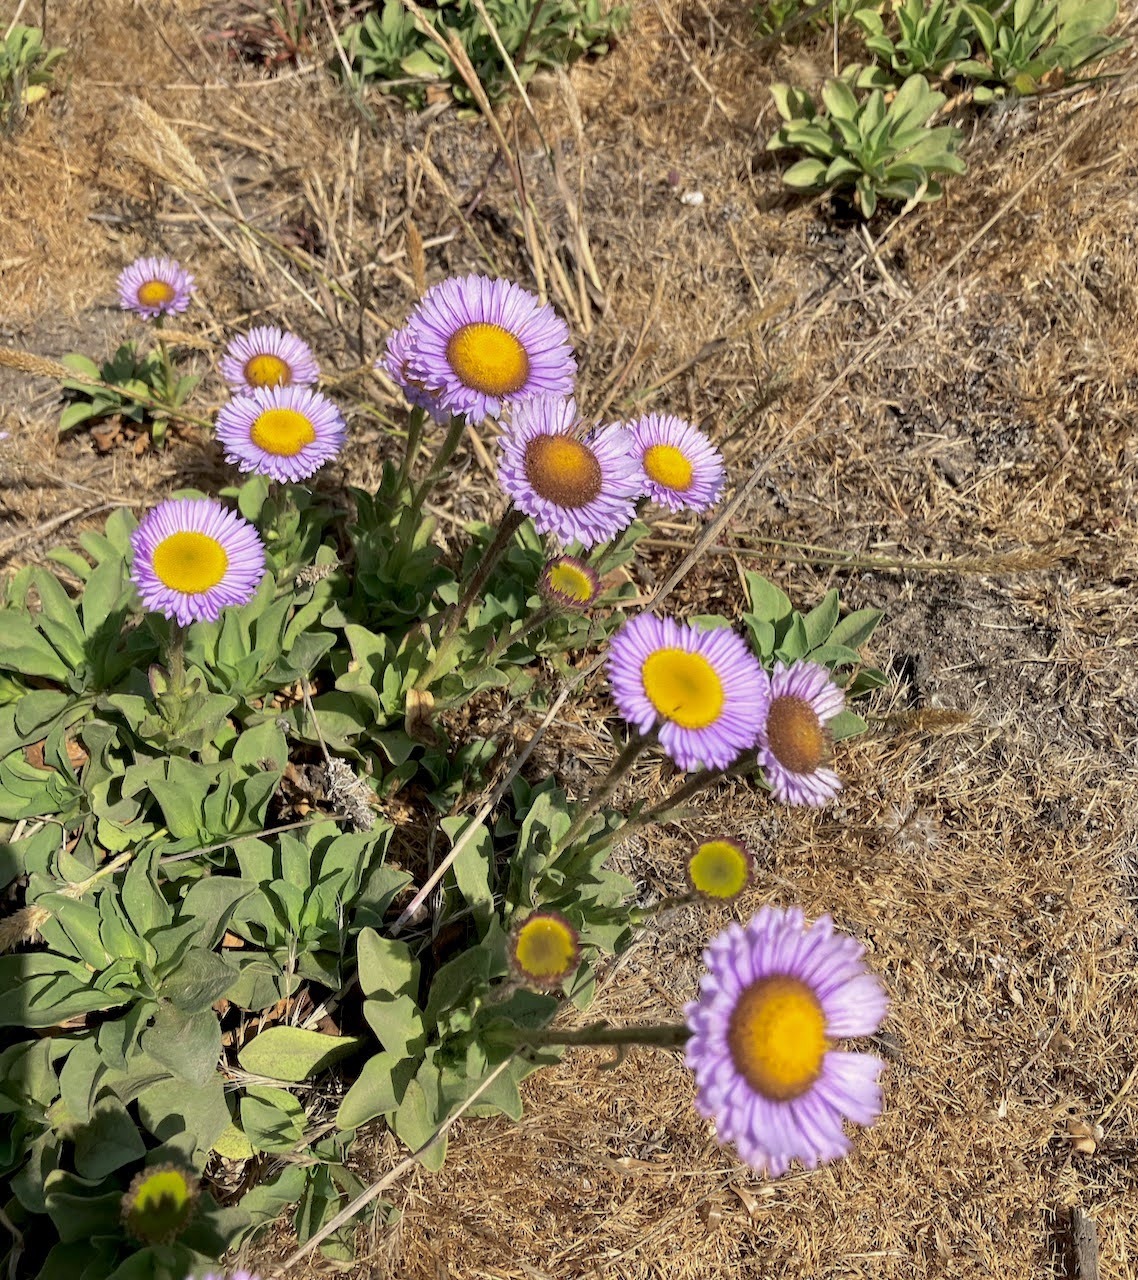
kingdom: Plantae
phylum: Tracheophyta
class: Magnoliopsida
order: Asterales
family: Asteraceae
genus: Erigeron
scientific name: Erigeron glaucus
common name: Seaside daisy
